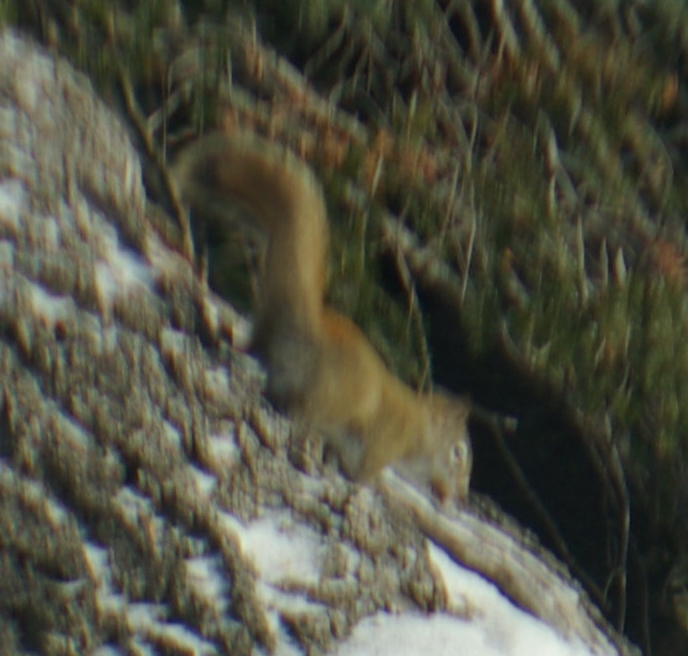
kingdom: Animalia
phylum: Chordata
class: Mammalia
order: Rodentia
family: Sciuridae
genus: Tamiasciurus
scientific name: Tamiasciurus hudsonicus
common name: Red squirrel
